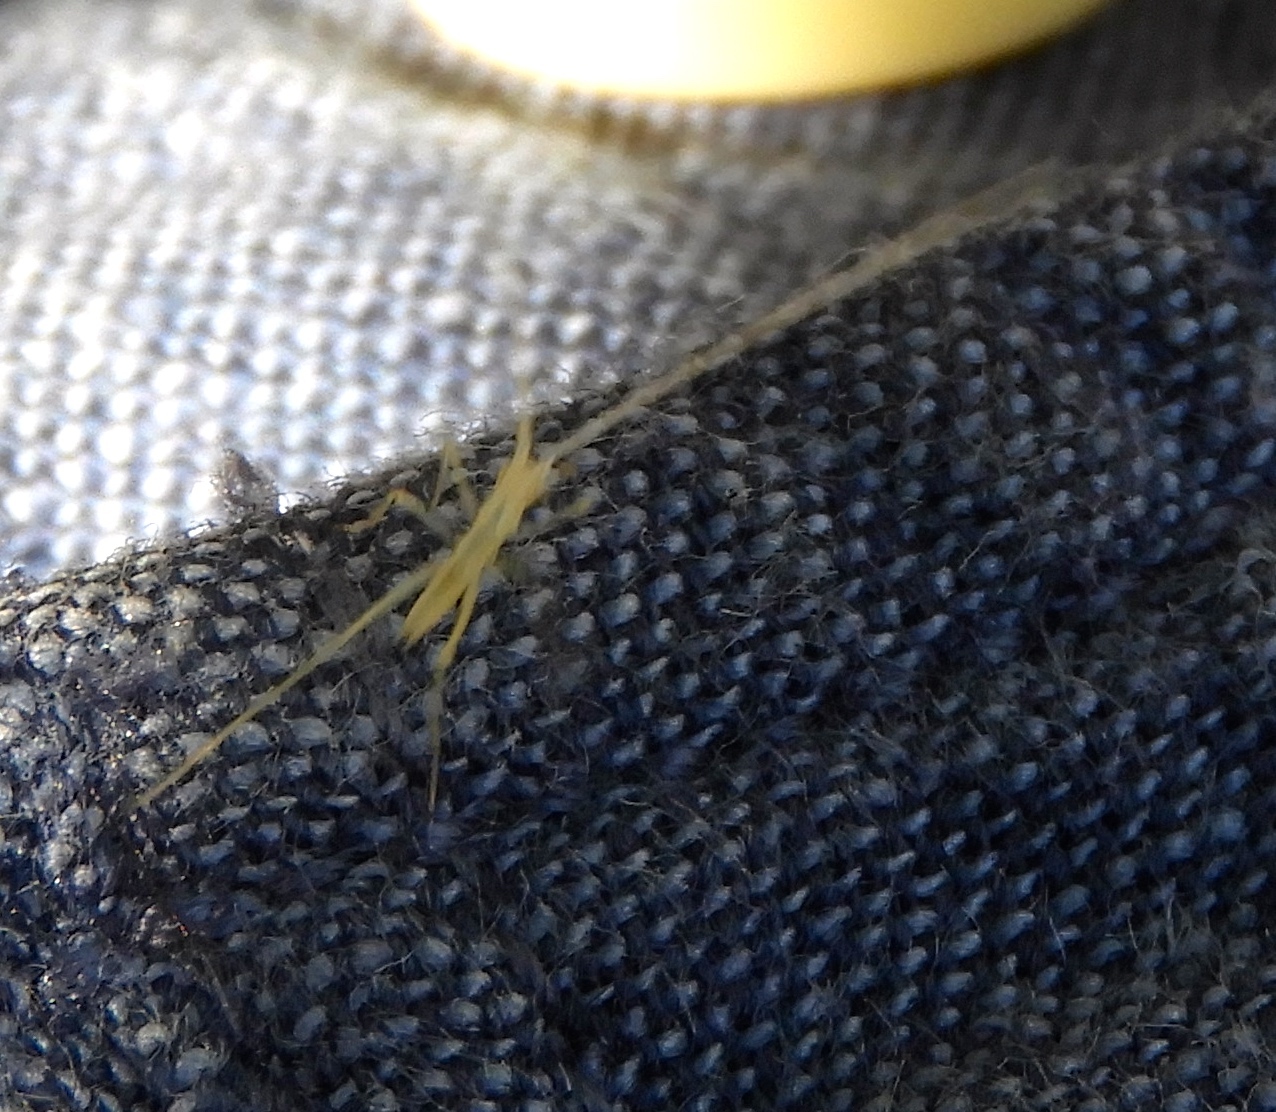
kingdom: Animalia
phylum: Arthropoda
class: Insecta
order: Orthoptera
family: Gryllidae
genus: Oecanthus
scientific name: Oecanthus
